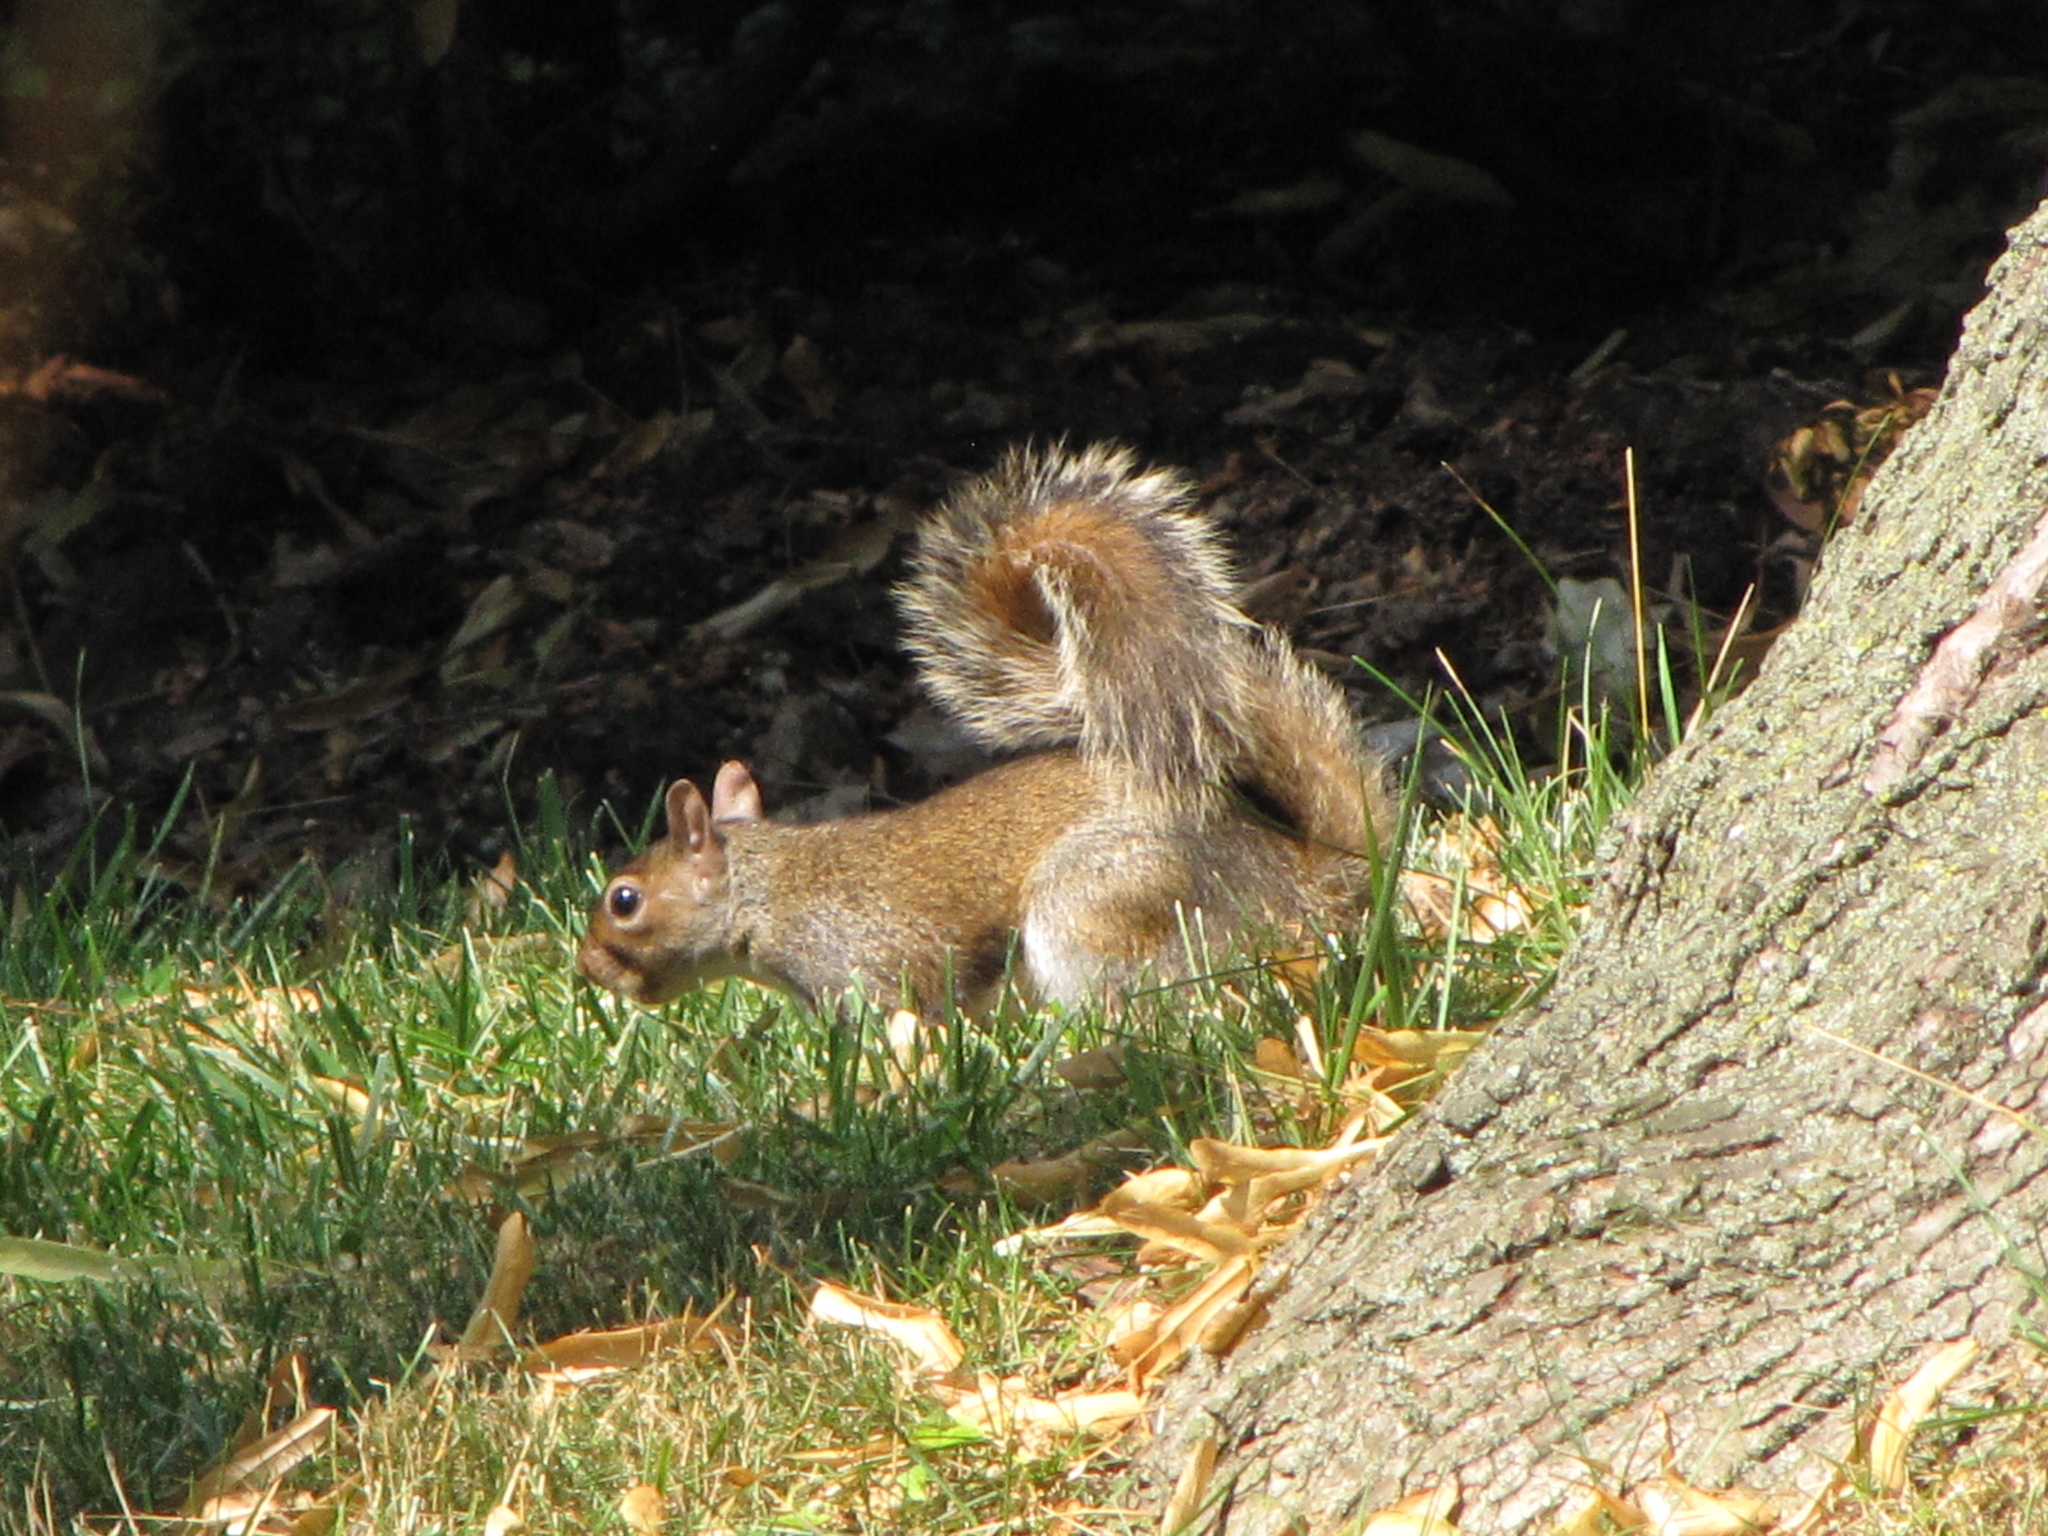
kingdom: Animalia
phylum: Chordata
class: Mammalia
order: Rodentia
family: Sciuridae
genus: Sciurus
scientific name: Sciurus carolinensis
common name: Eastern gray squirrel
